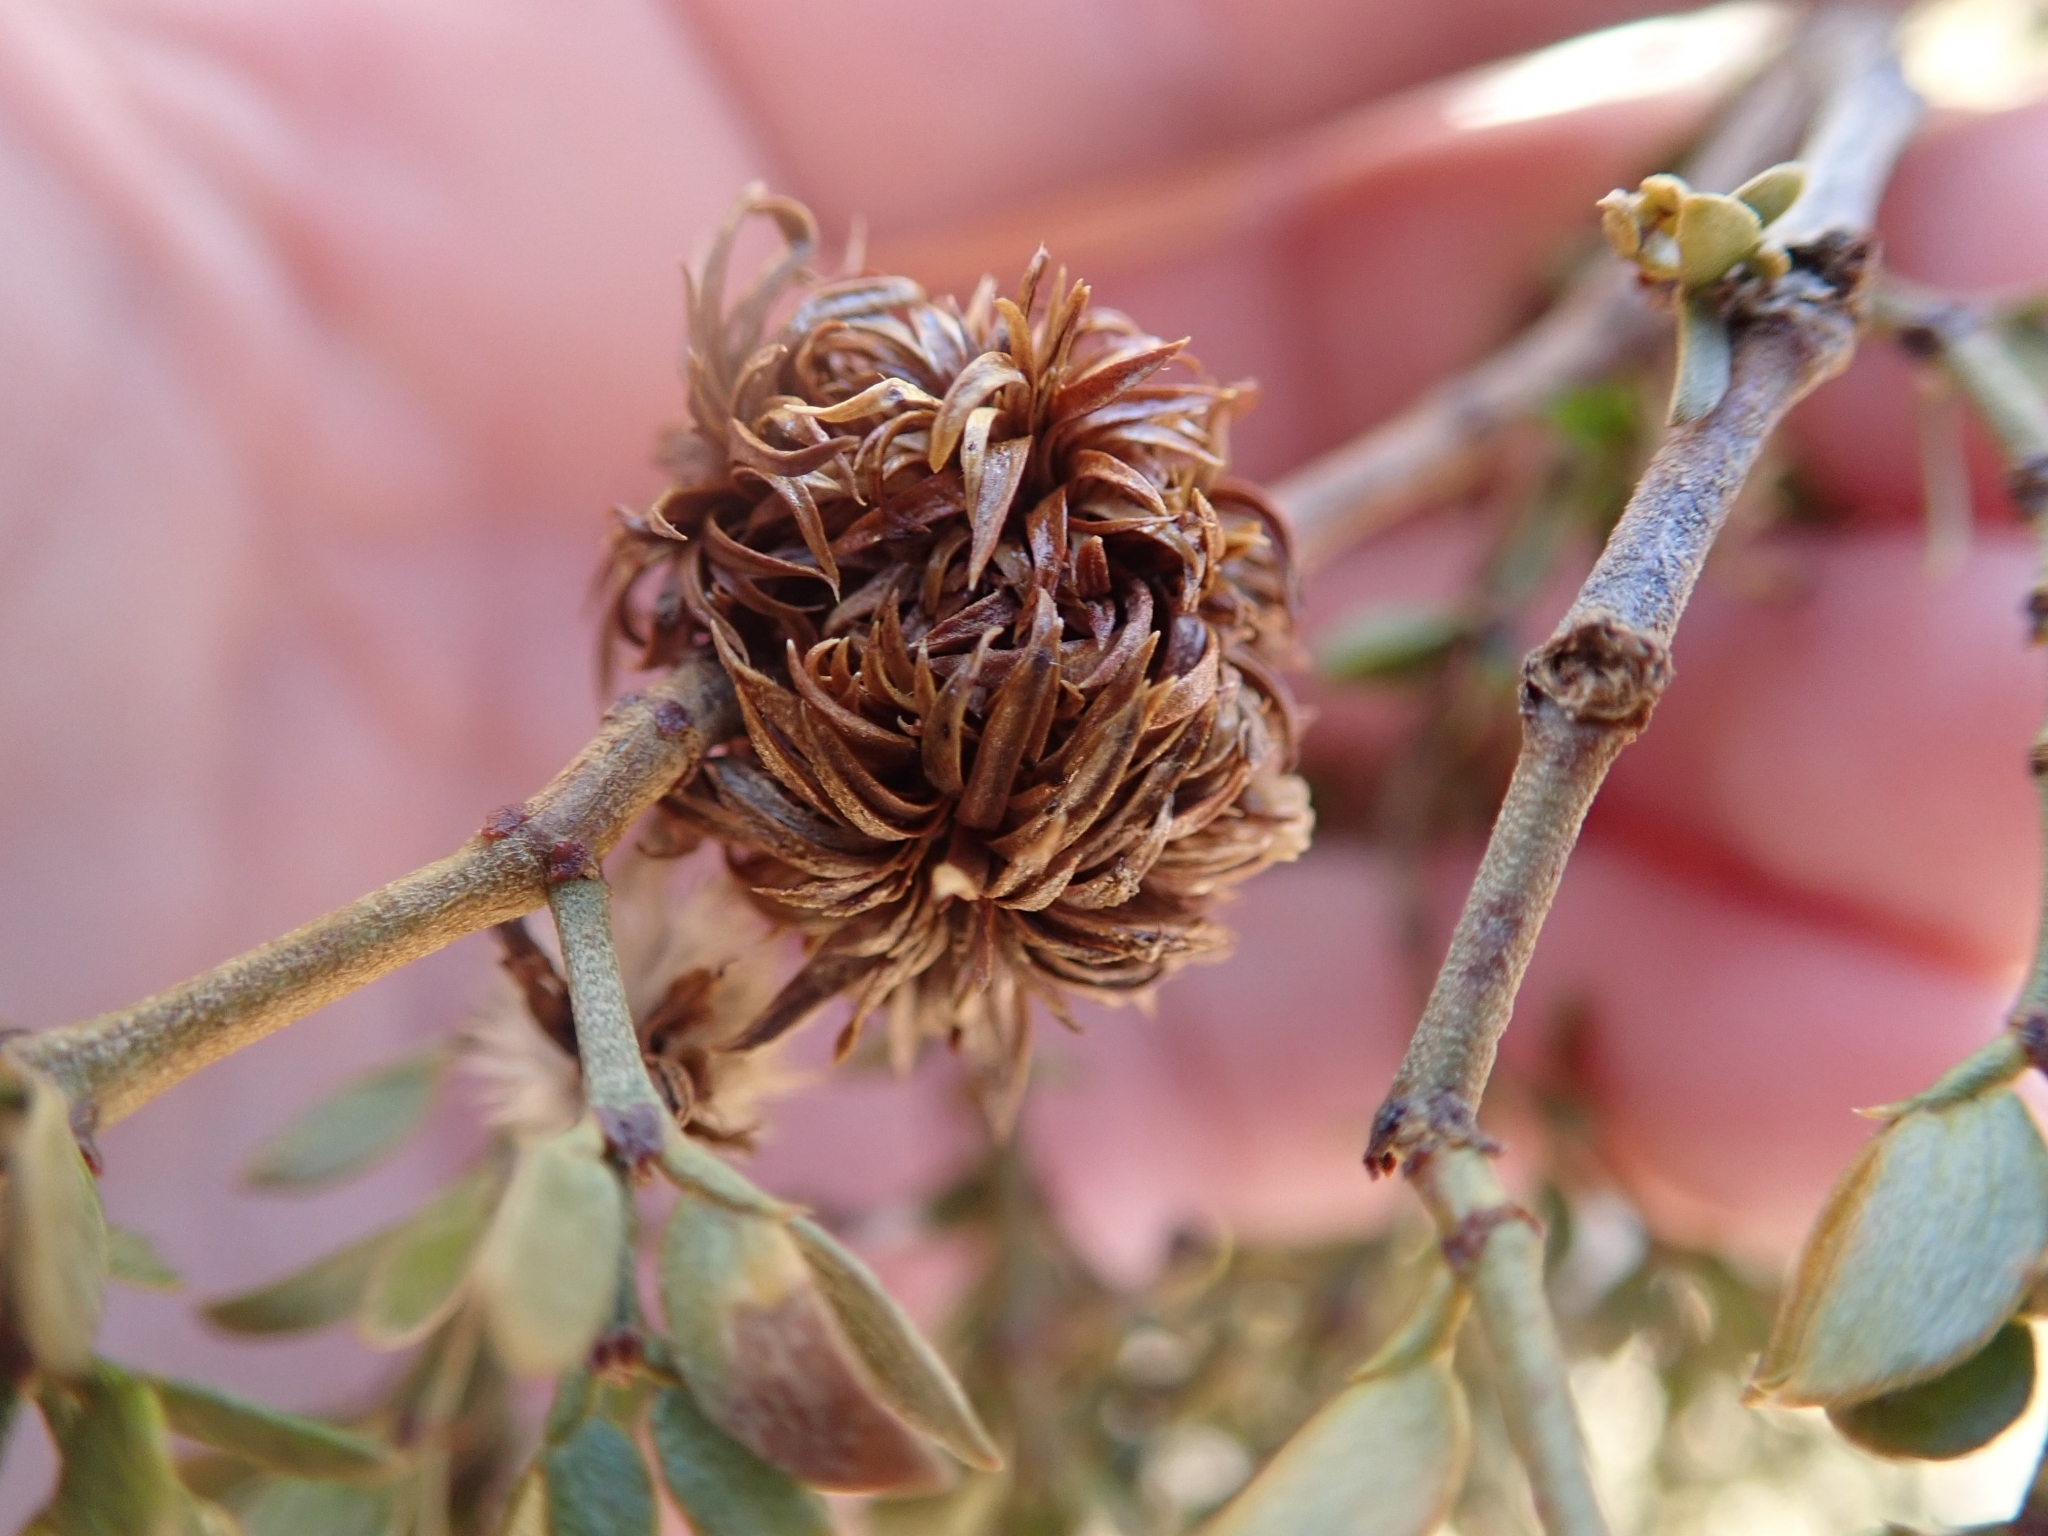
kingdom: Animalia
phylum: Arthropoda
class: Insecta
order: Diptera
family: Cecidomyiidae
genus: Asphondylia
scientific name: Asphondylia auripila
